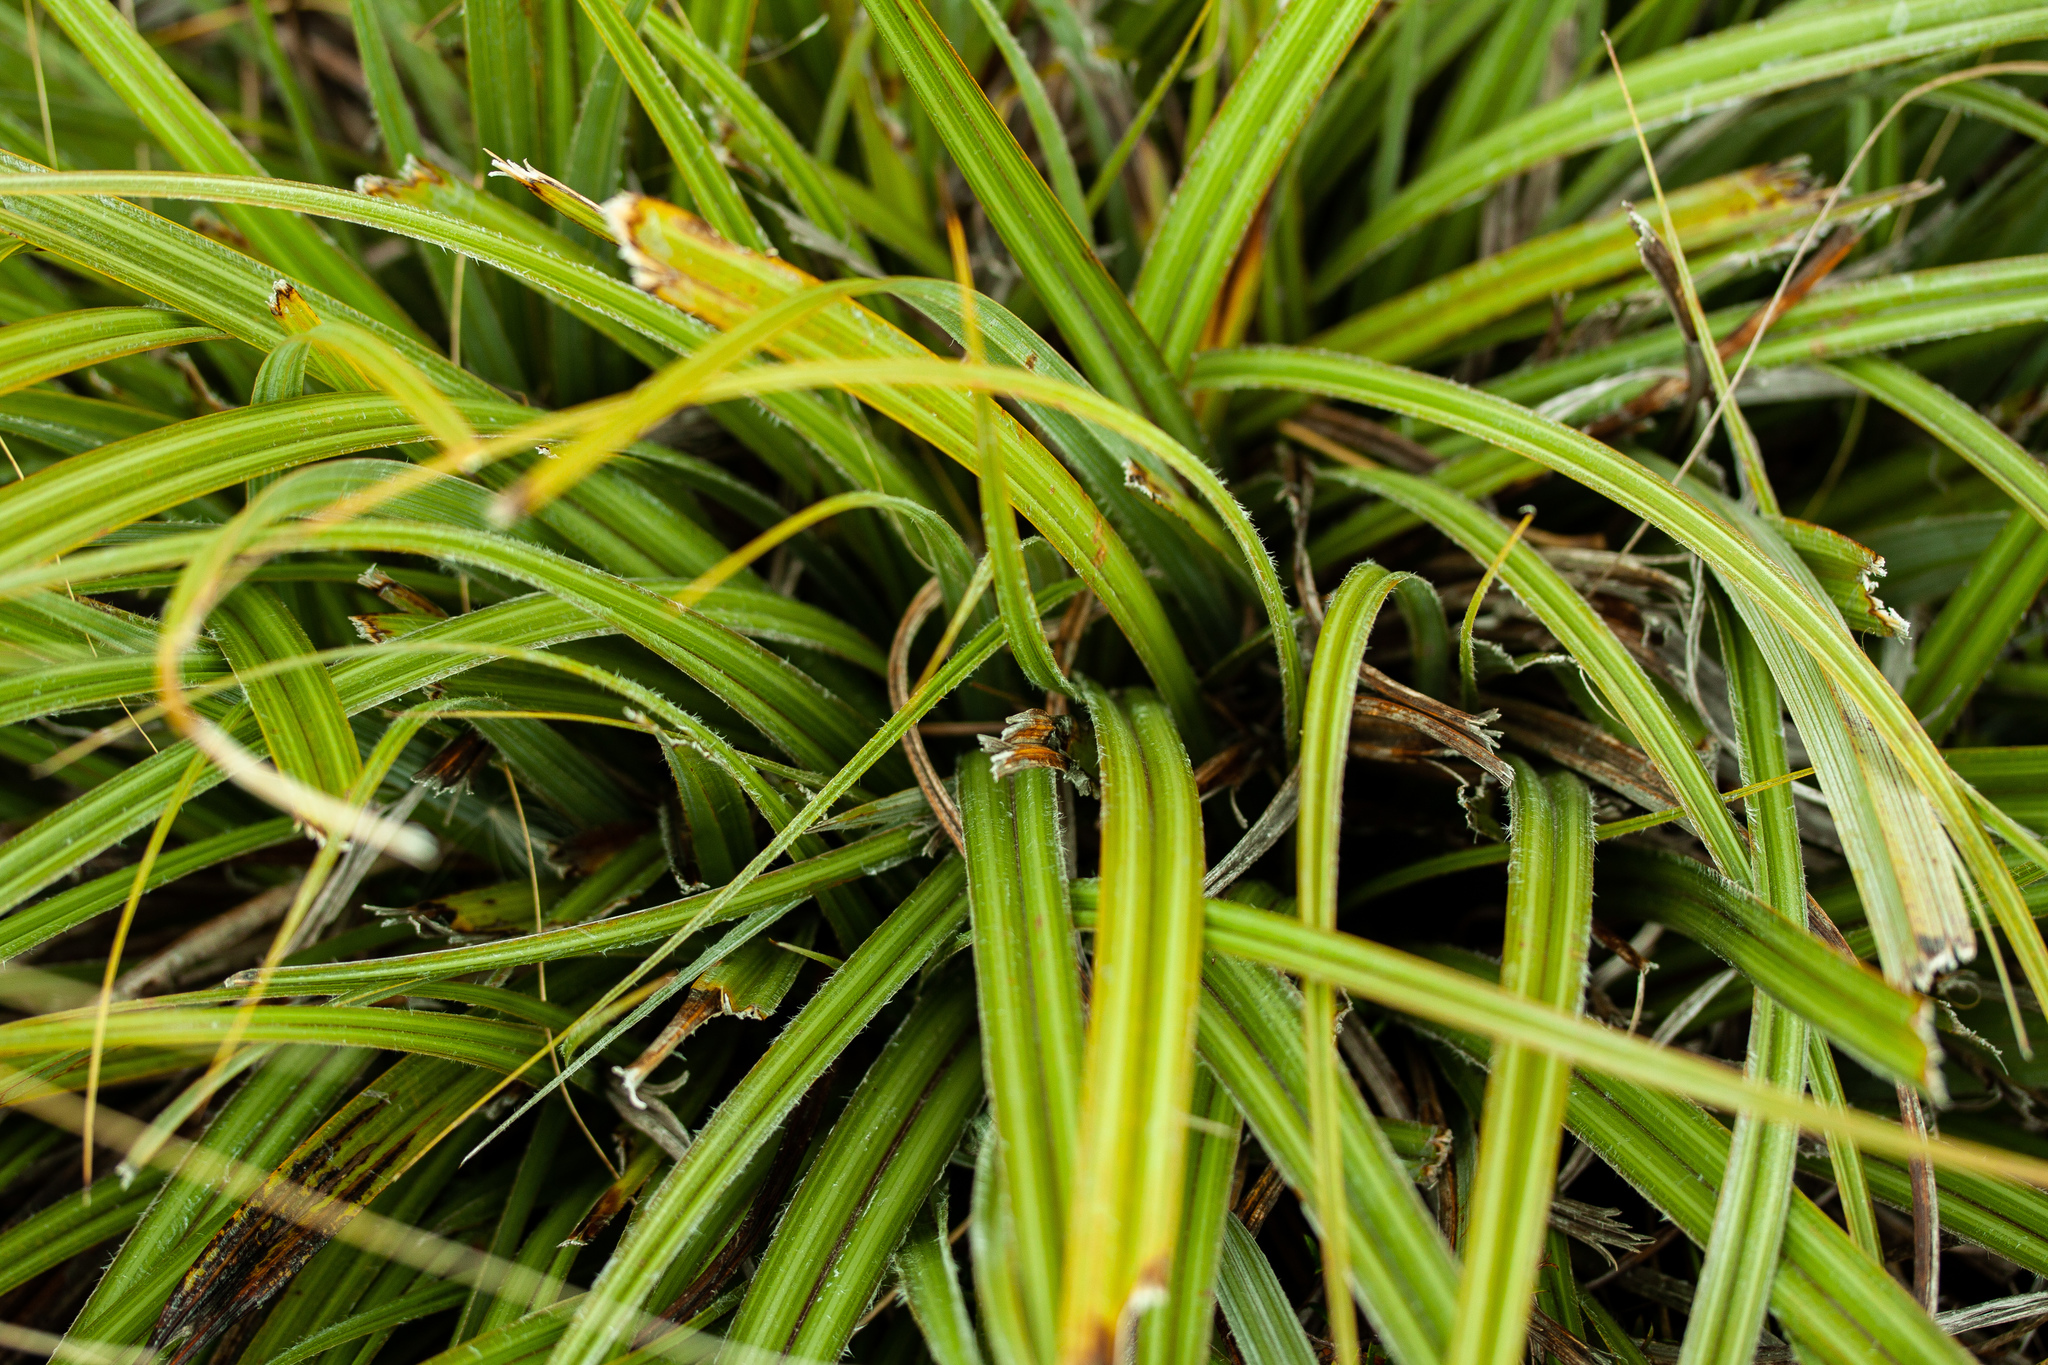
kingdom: Plantae
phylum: Tracheophyta
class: Liliopsida
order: Asparagales
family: Asteliaceae
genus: Astelia
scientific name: Astelia nervosa
